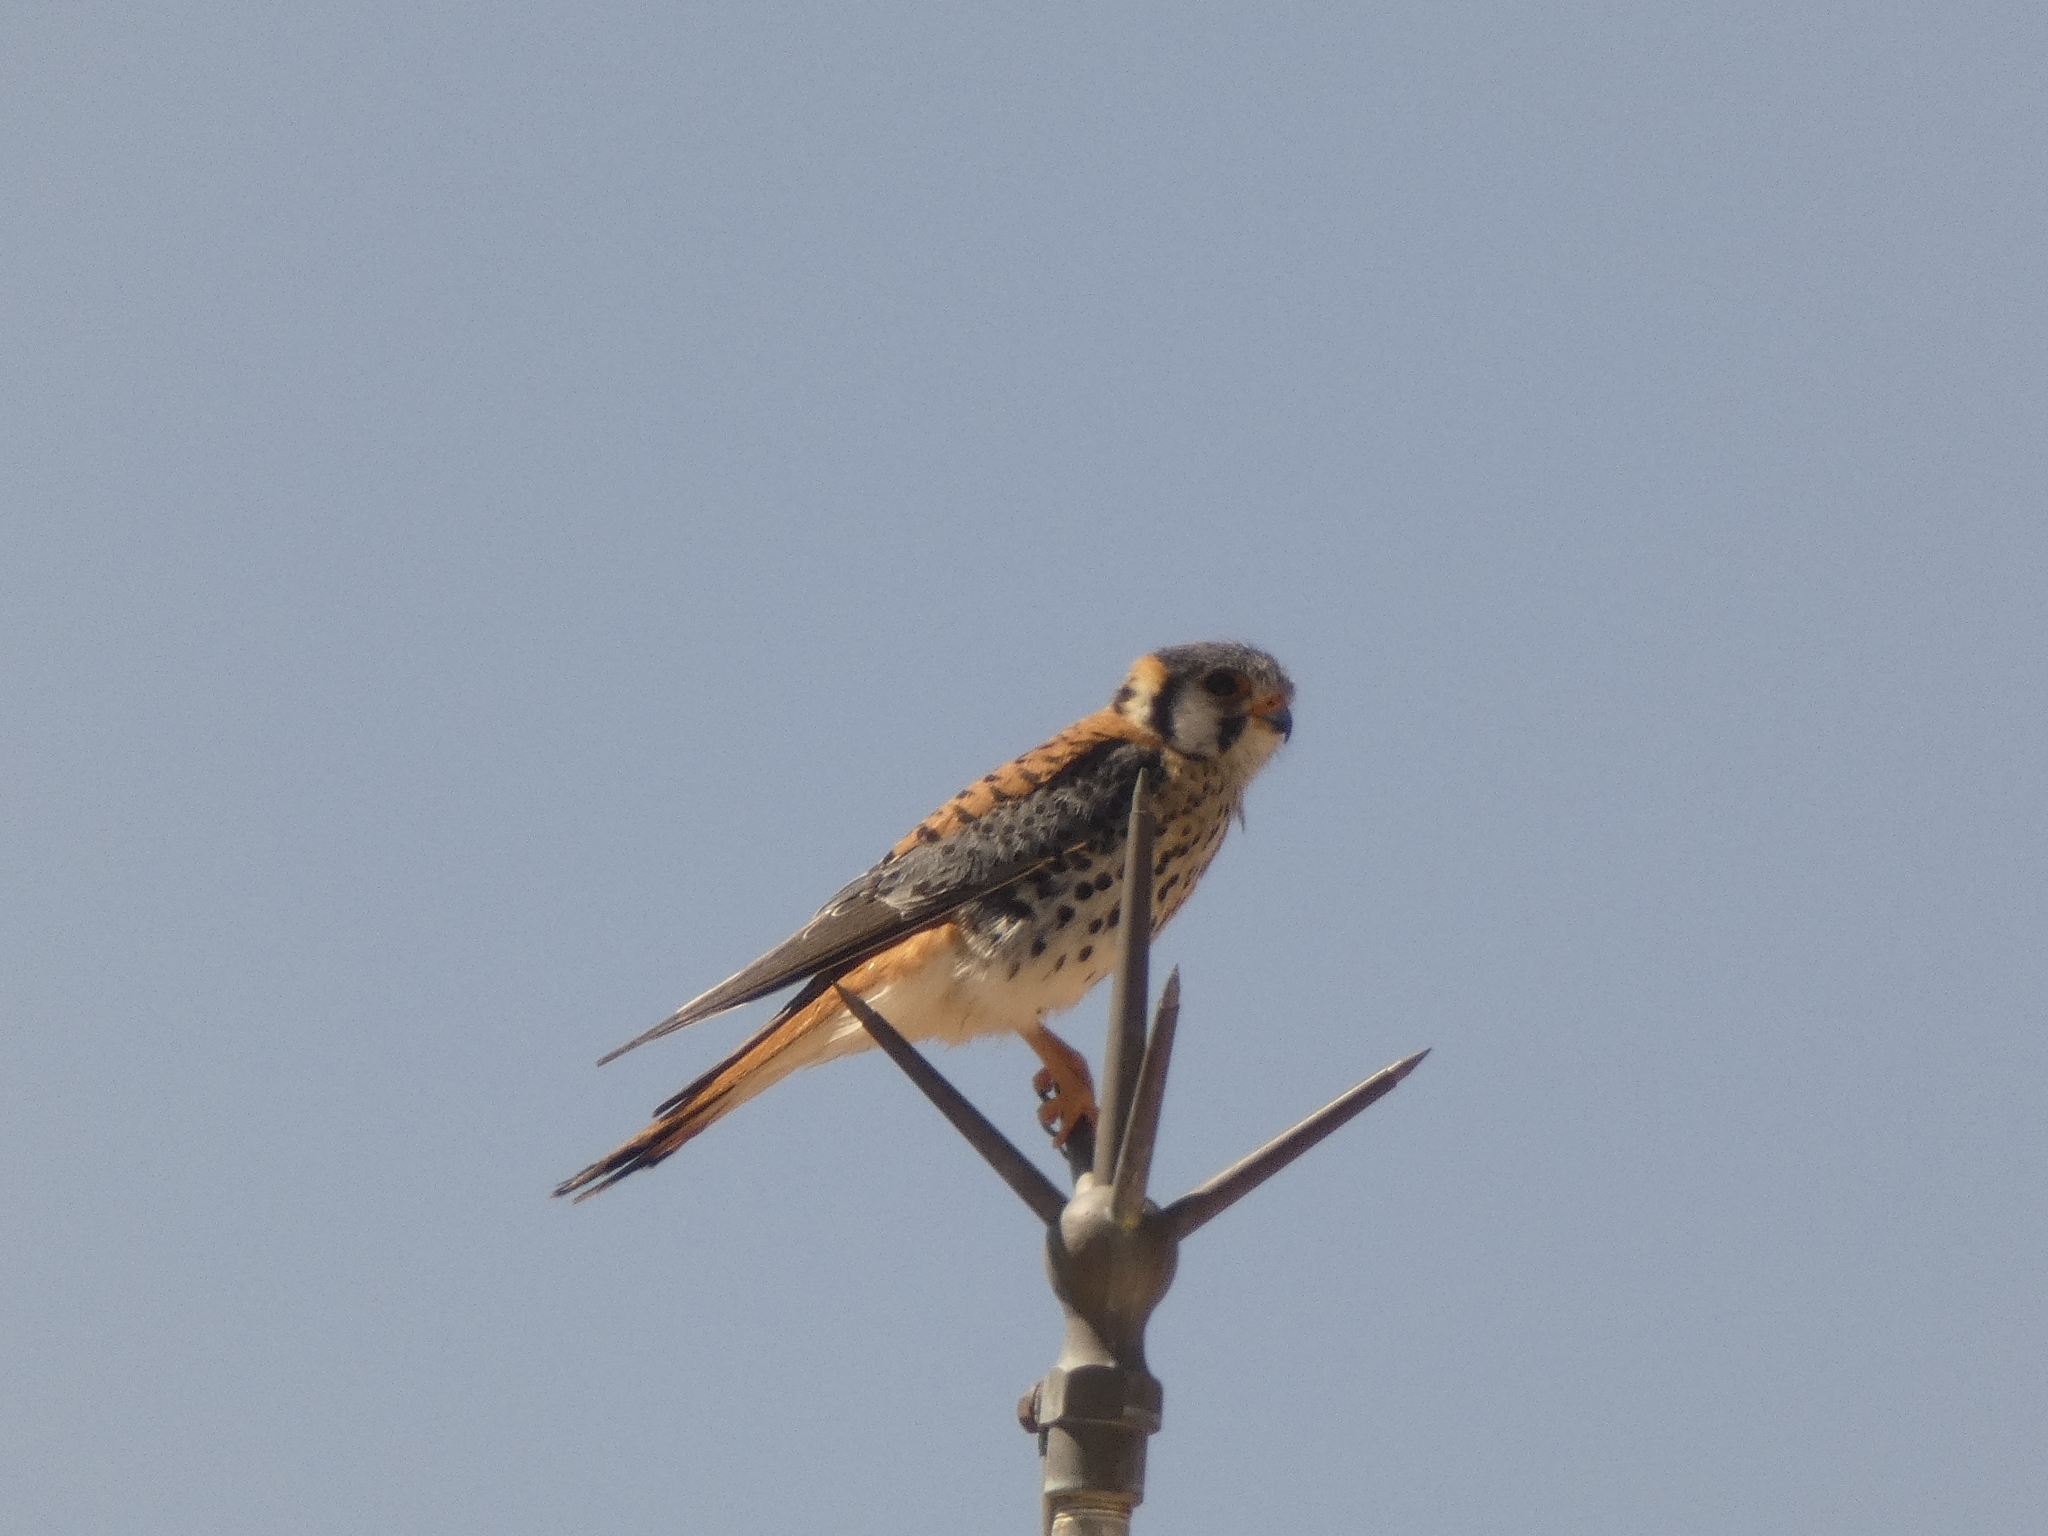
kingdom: Animalia
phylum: Chordata
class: Aves
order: Falconiformes
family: Falconidae
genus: Falco
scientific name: Falco sparverius
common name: American kestrel
